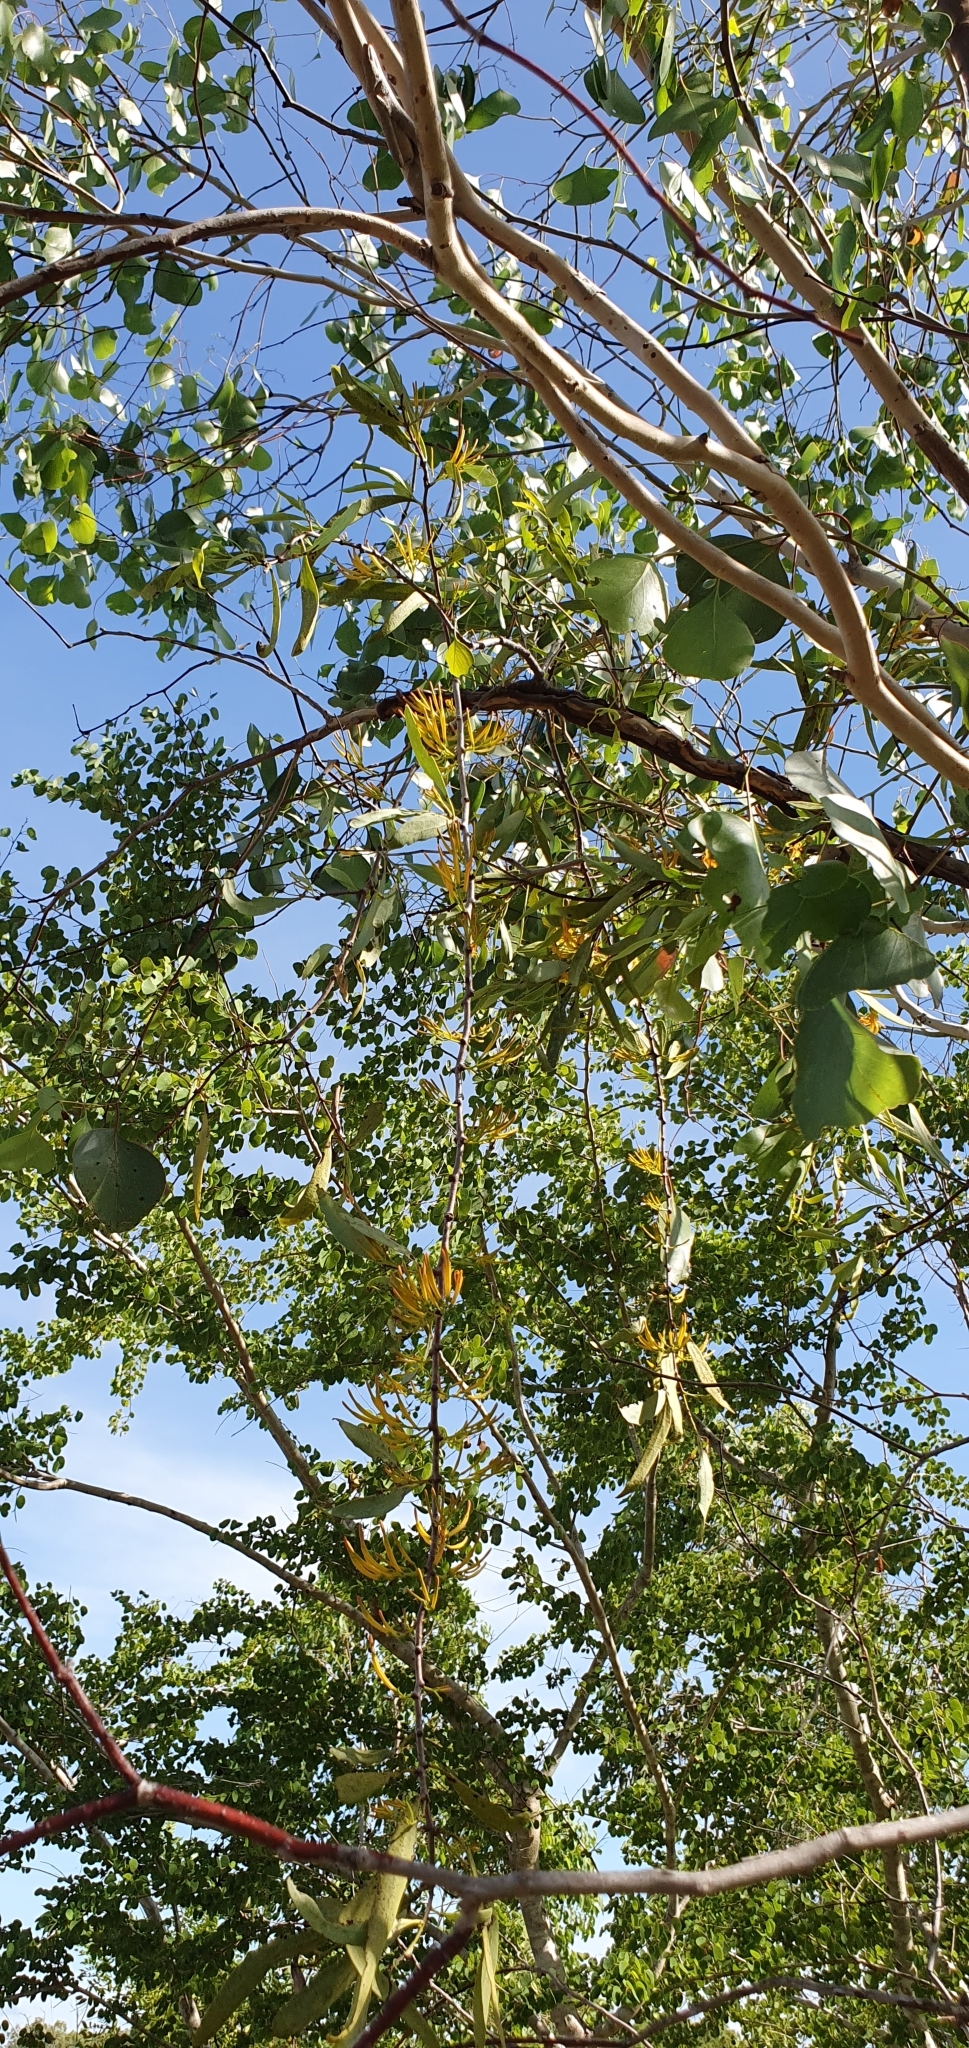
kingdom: Plantae
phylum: Tracheophyta
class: Magnoliopsida
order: Santalales
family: Loranthaceae
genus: Dendrophthoe
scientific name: Dendrophthoe glabrescens
